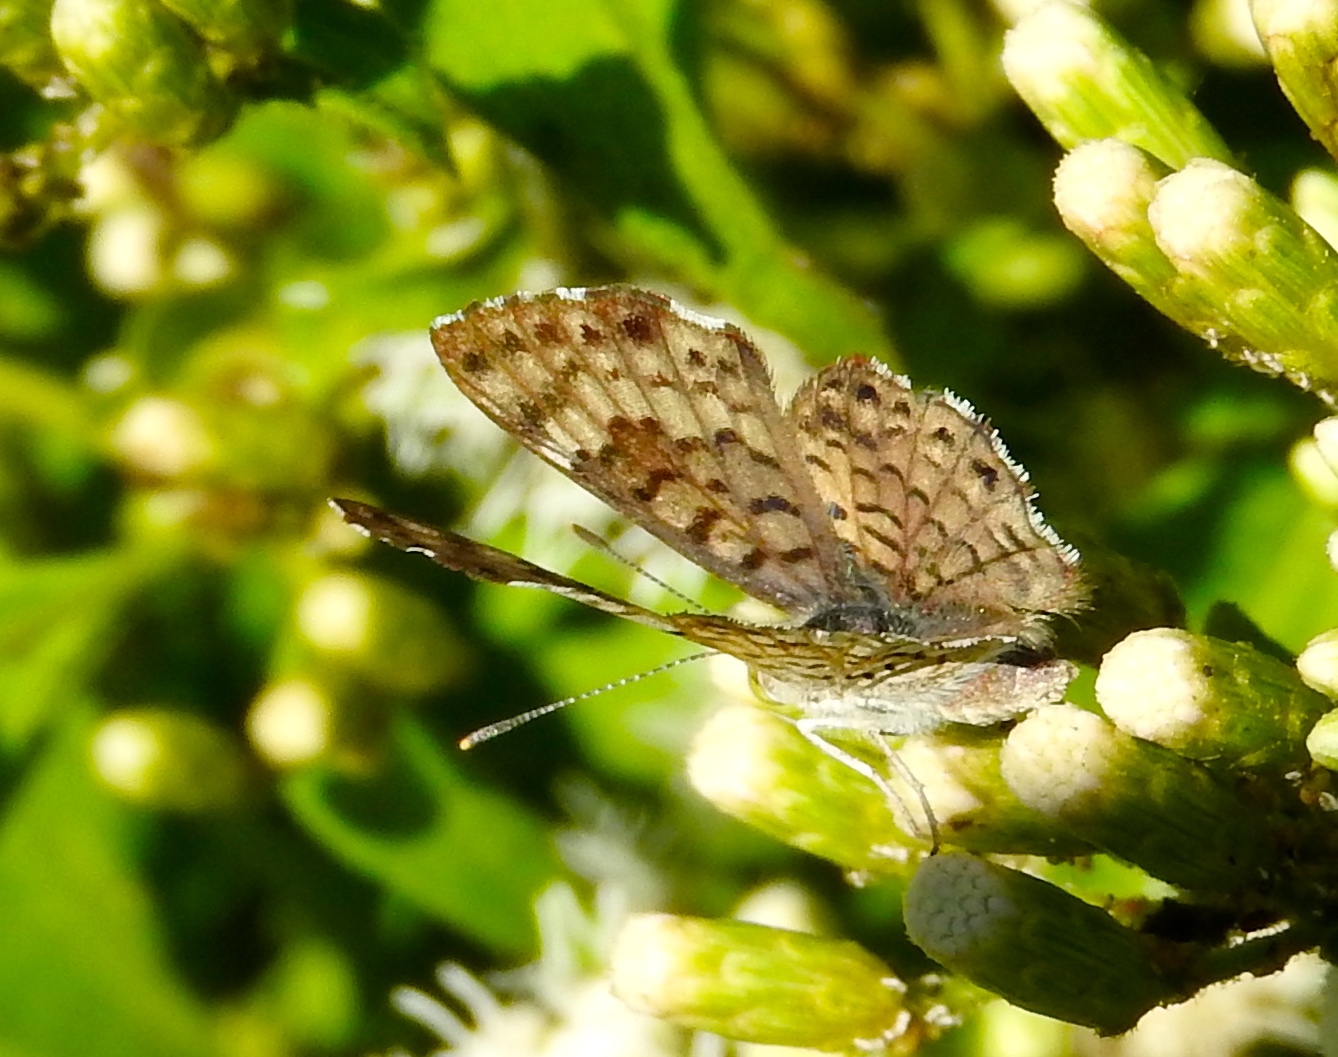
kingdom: Animalia
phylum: Arthropoda
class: Insecta
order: Lepidoptera
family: Riodinidae
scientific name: Riodinidae
